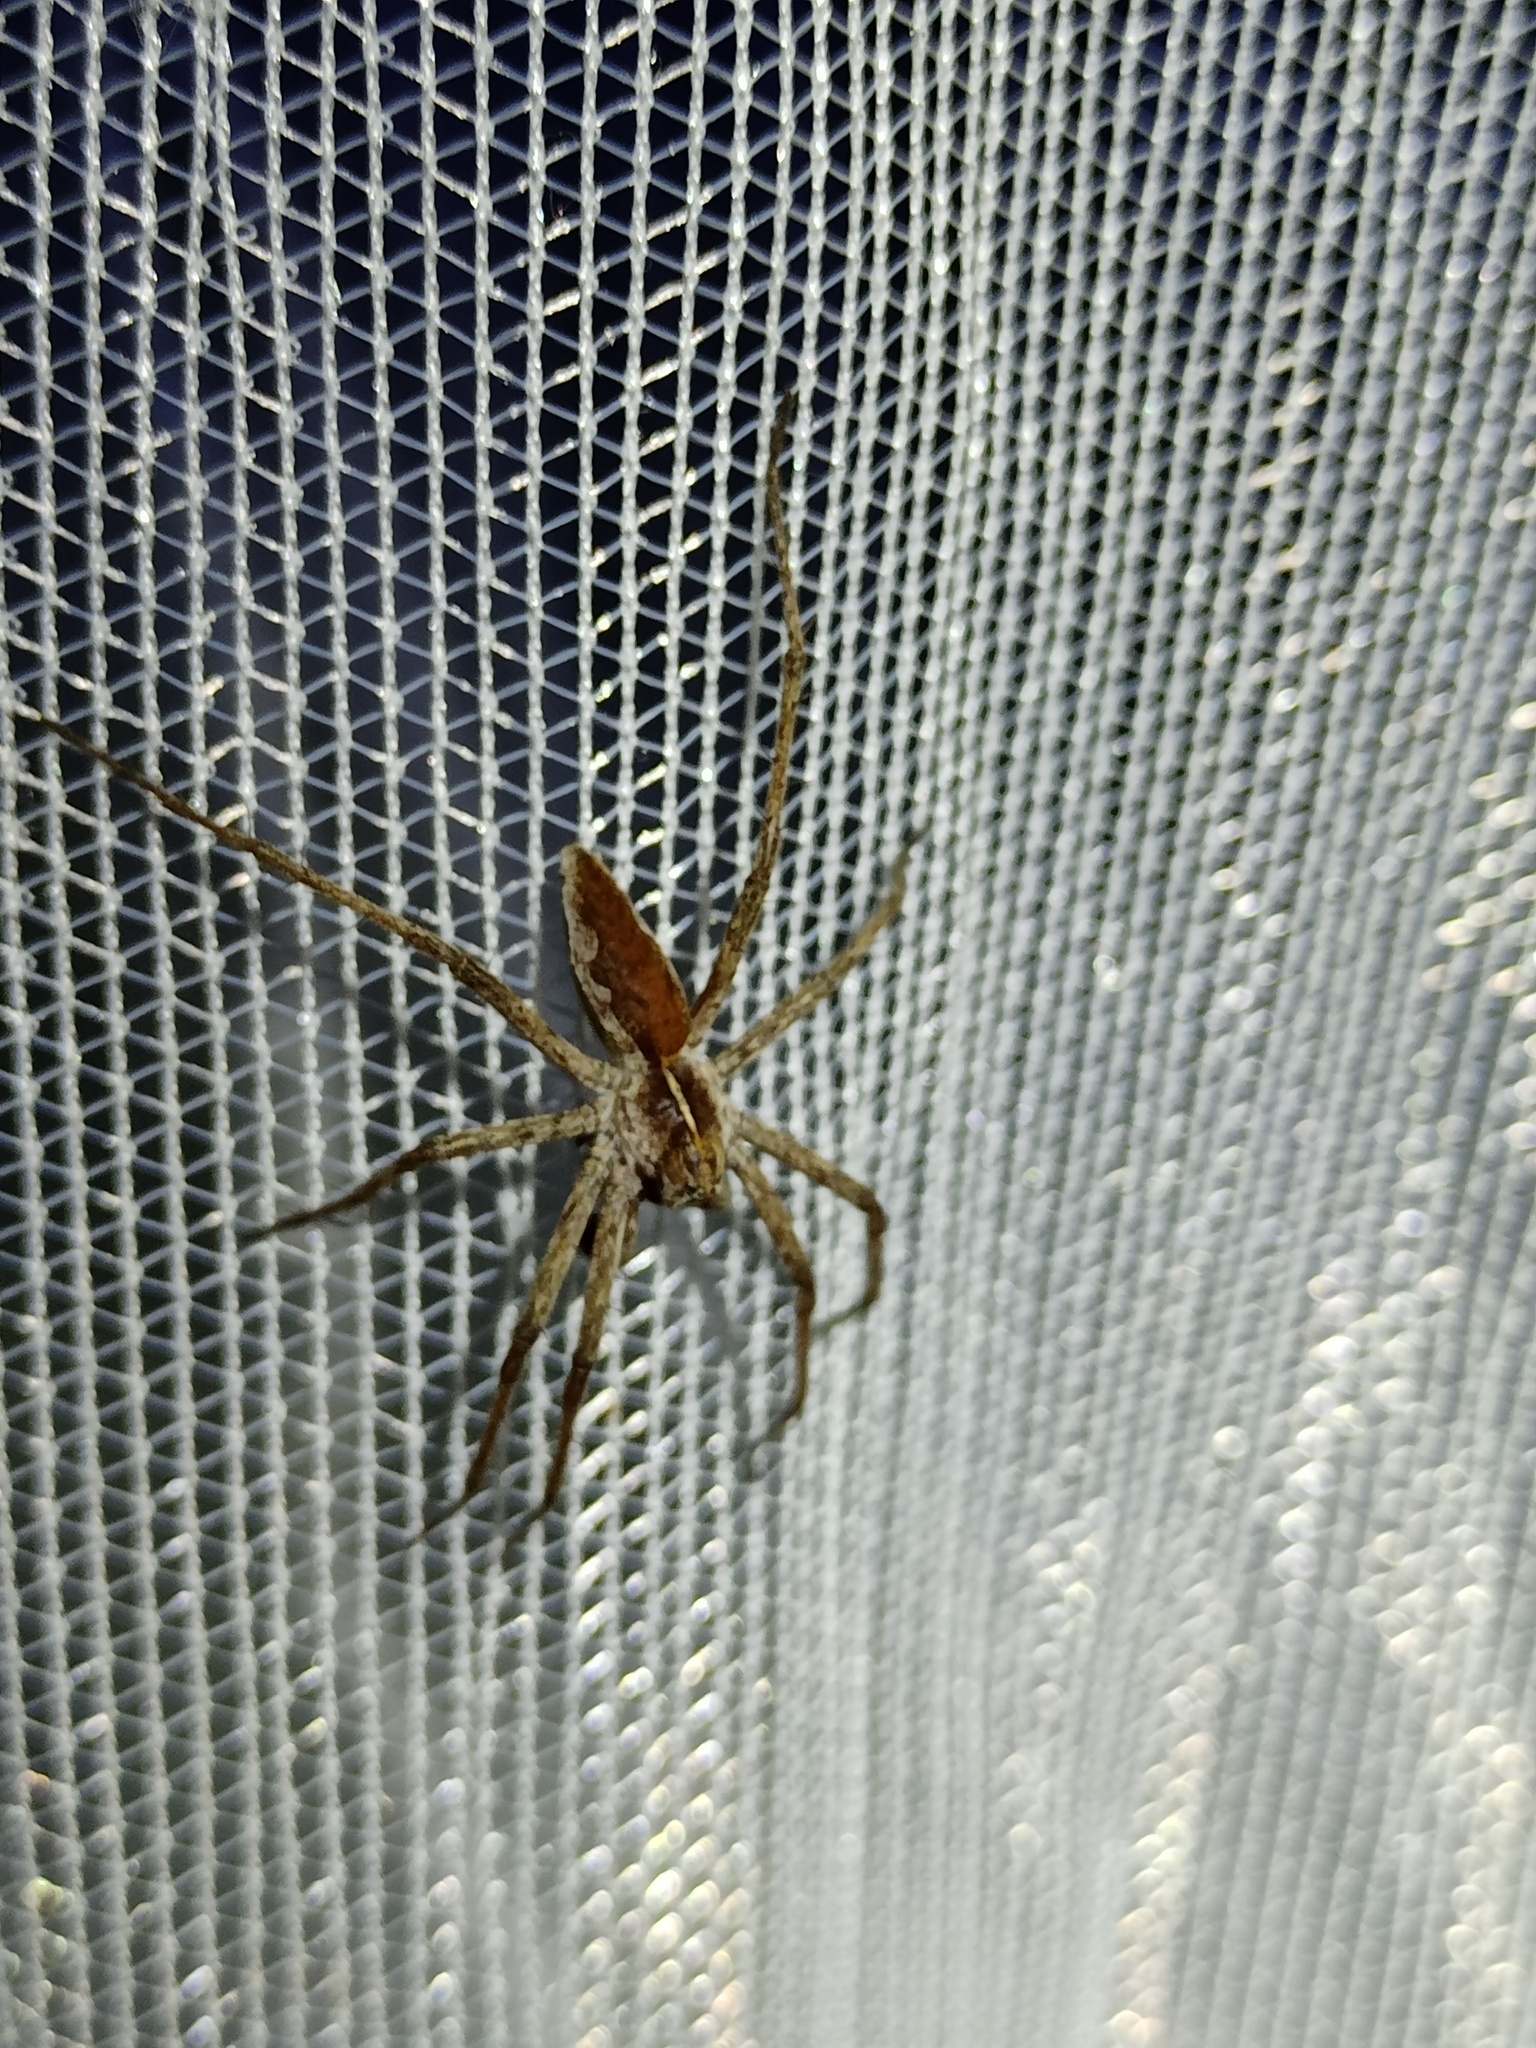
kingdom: Animalia
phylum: Arthropoda
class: Arachnida
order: Araneae
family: Pisauridae
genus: Pisaura
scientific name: Pisaura mirabilis
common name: Tent spider
